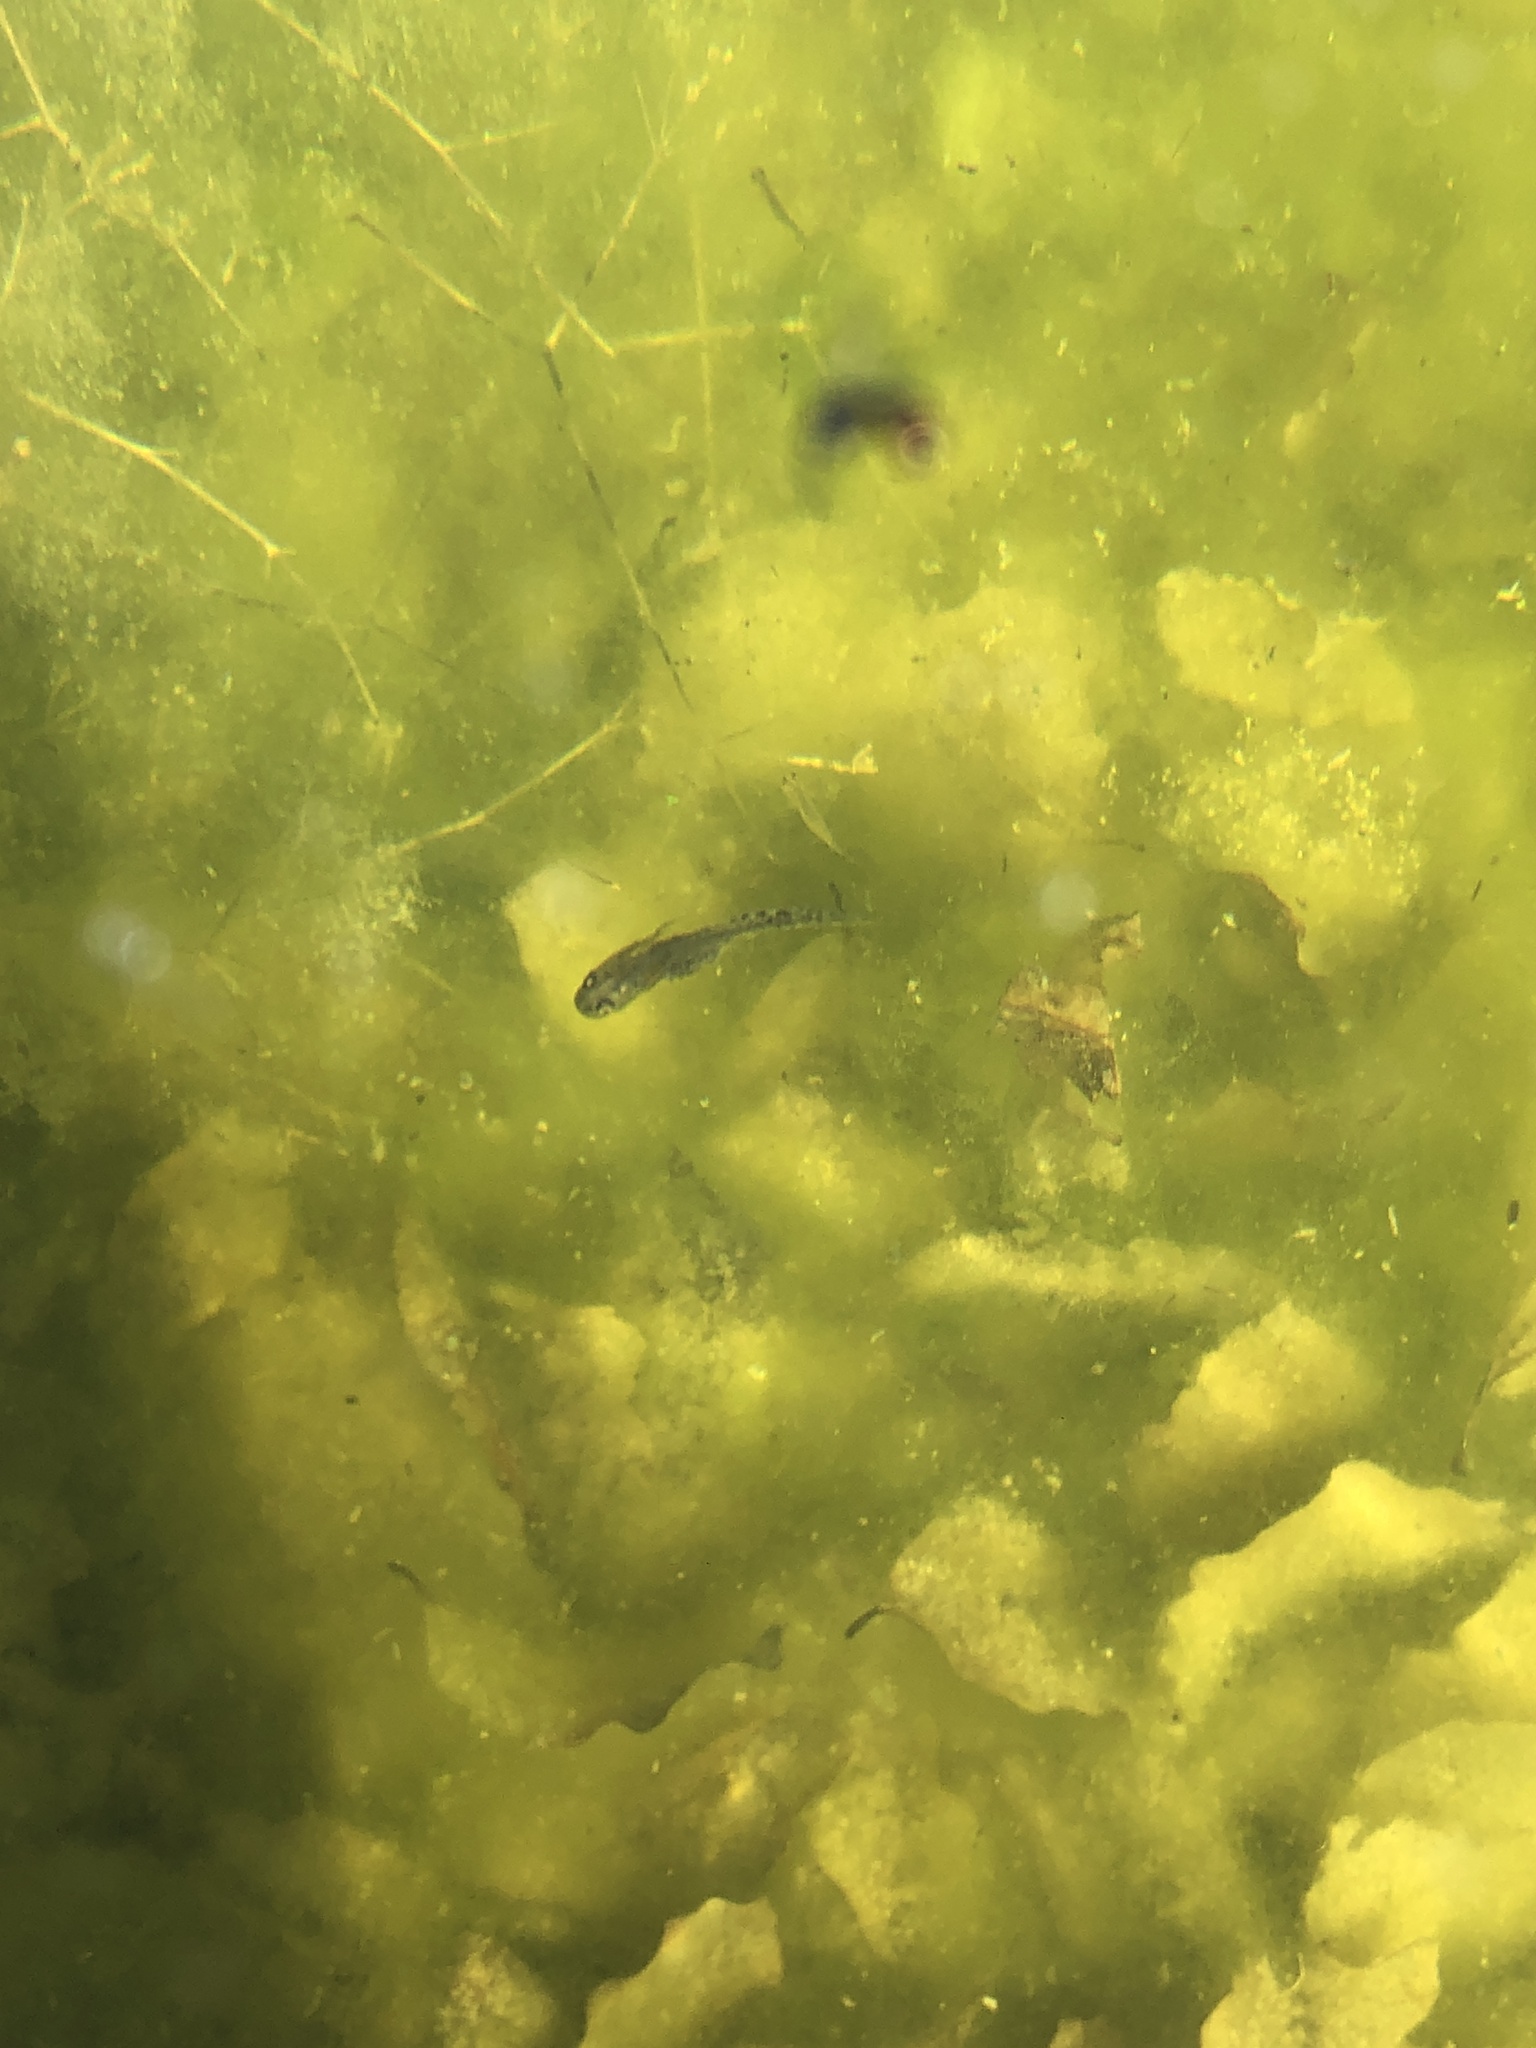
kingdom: Animalia
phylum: Chordata
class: Amphibia
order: Caudata
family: Salamandridae
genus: Triturus
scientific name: Triturus carnifex
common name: Italian crested newt
